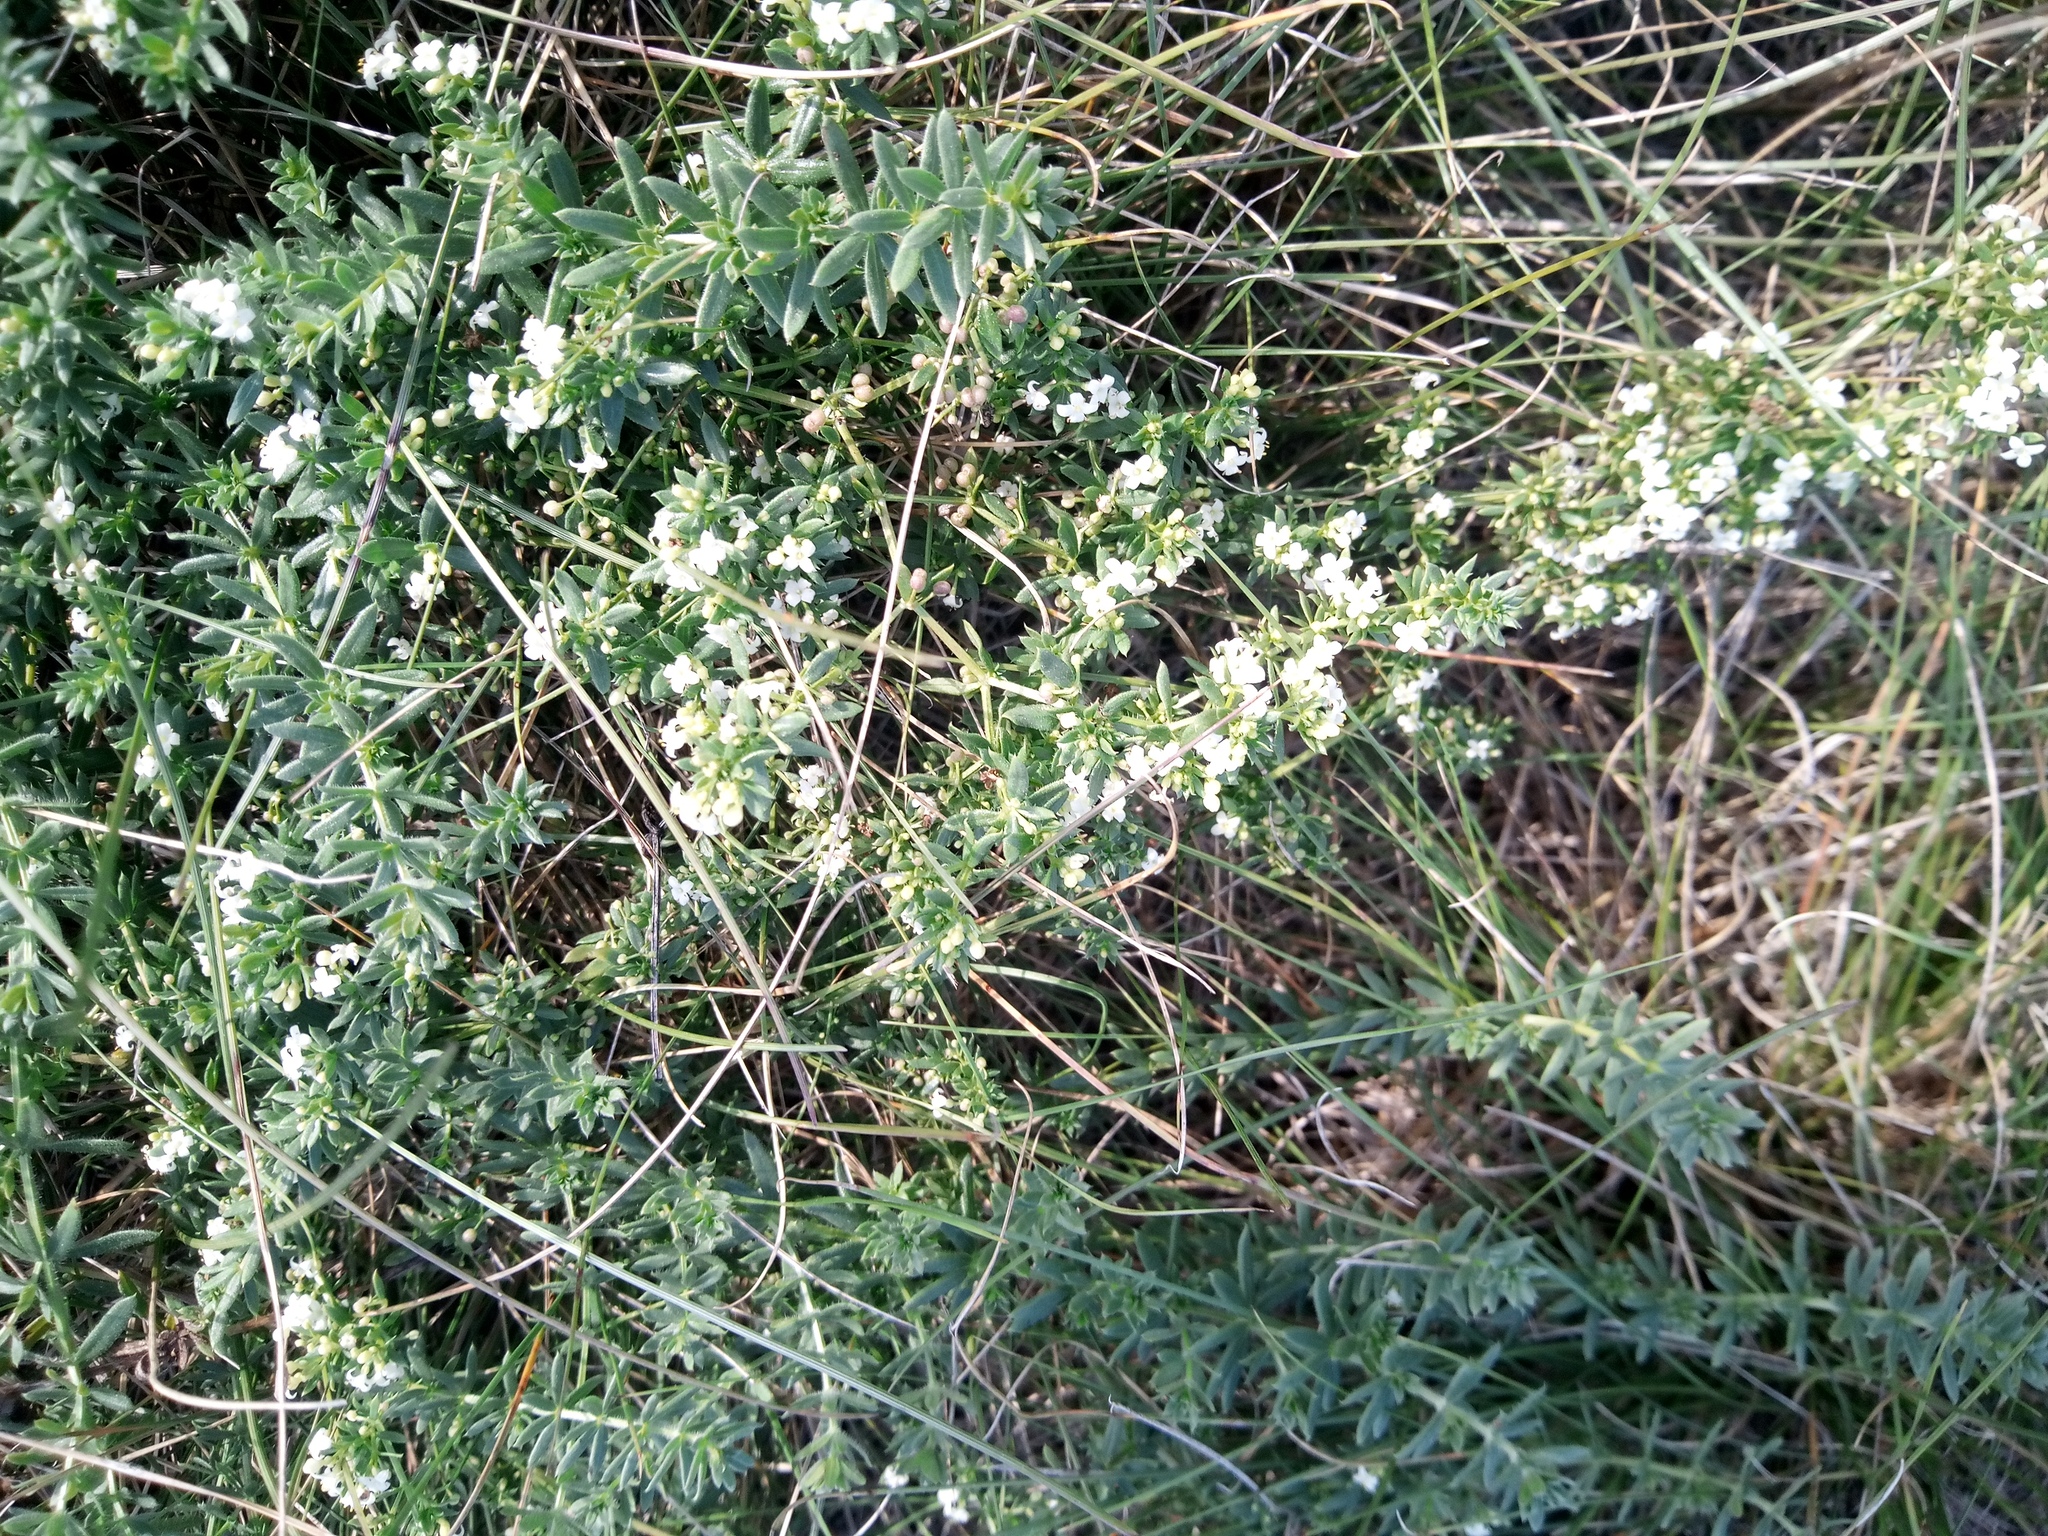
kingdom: Plantae
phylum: Tracheophyta
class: Magnoliopsida
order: Gentianales
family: Rubiaceae
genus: Galium
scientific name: Galium humifusum
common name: Spreading bedstraw
